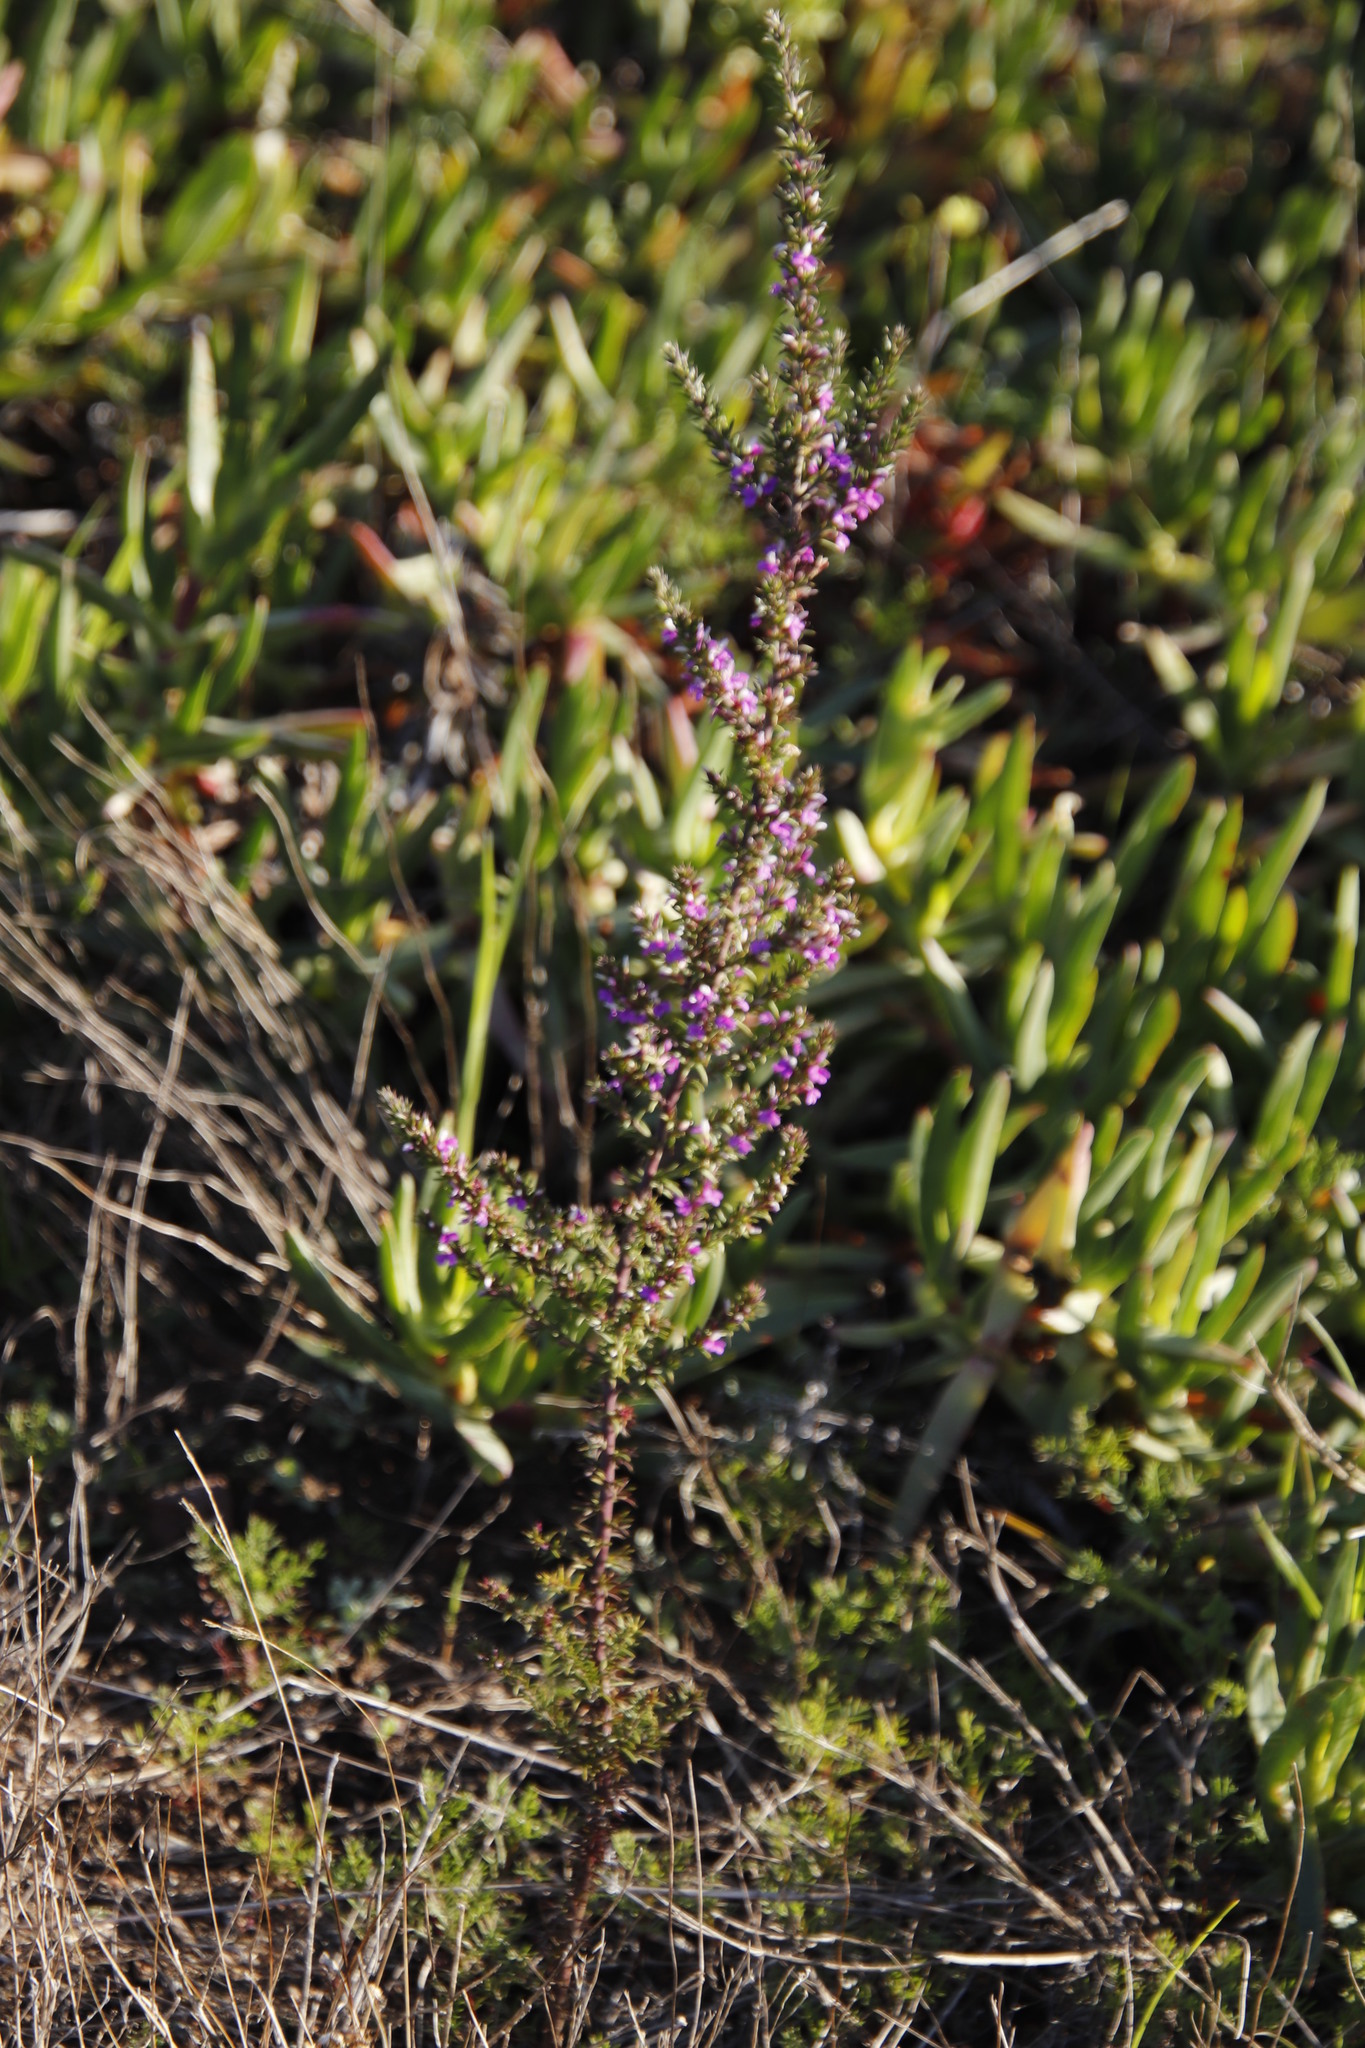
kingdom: Plantae
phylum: Tracheophyta
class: Magnoliopsida
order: Fabales
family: Polygalaceae
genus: Muraltia
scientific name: Muraltia heisteria
